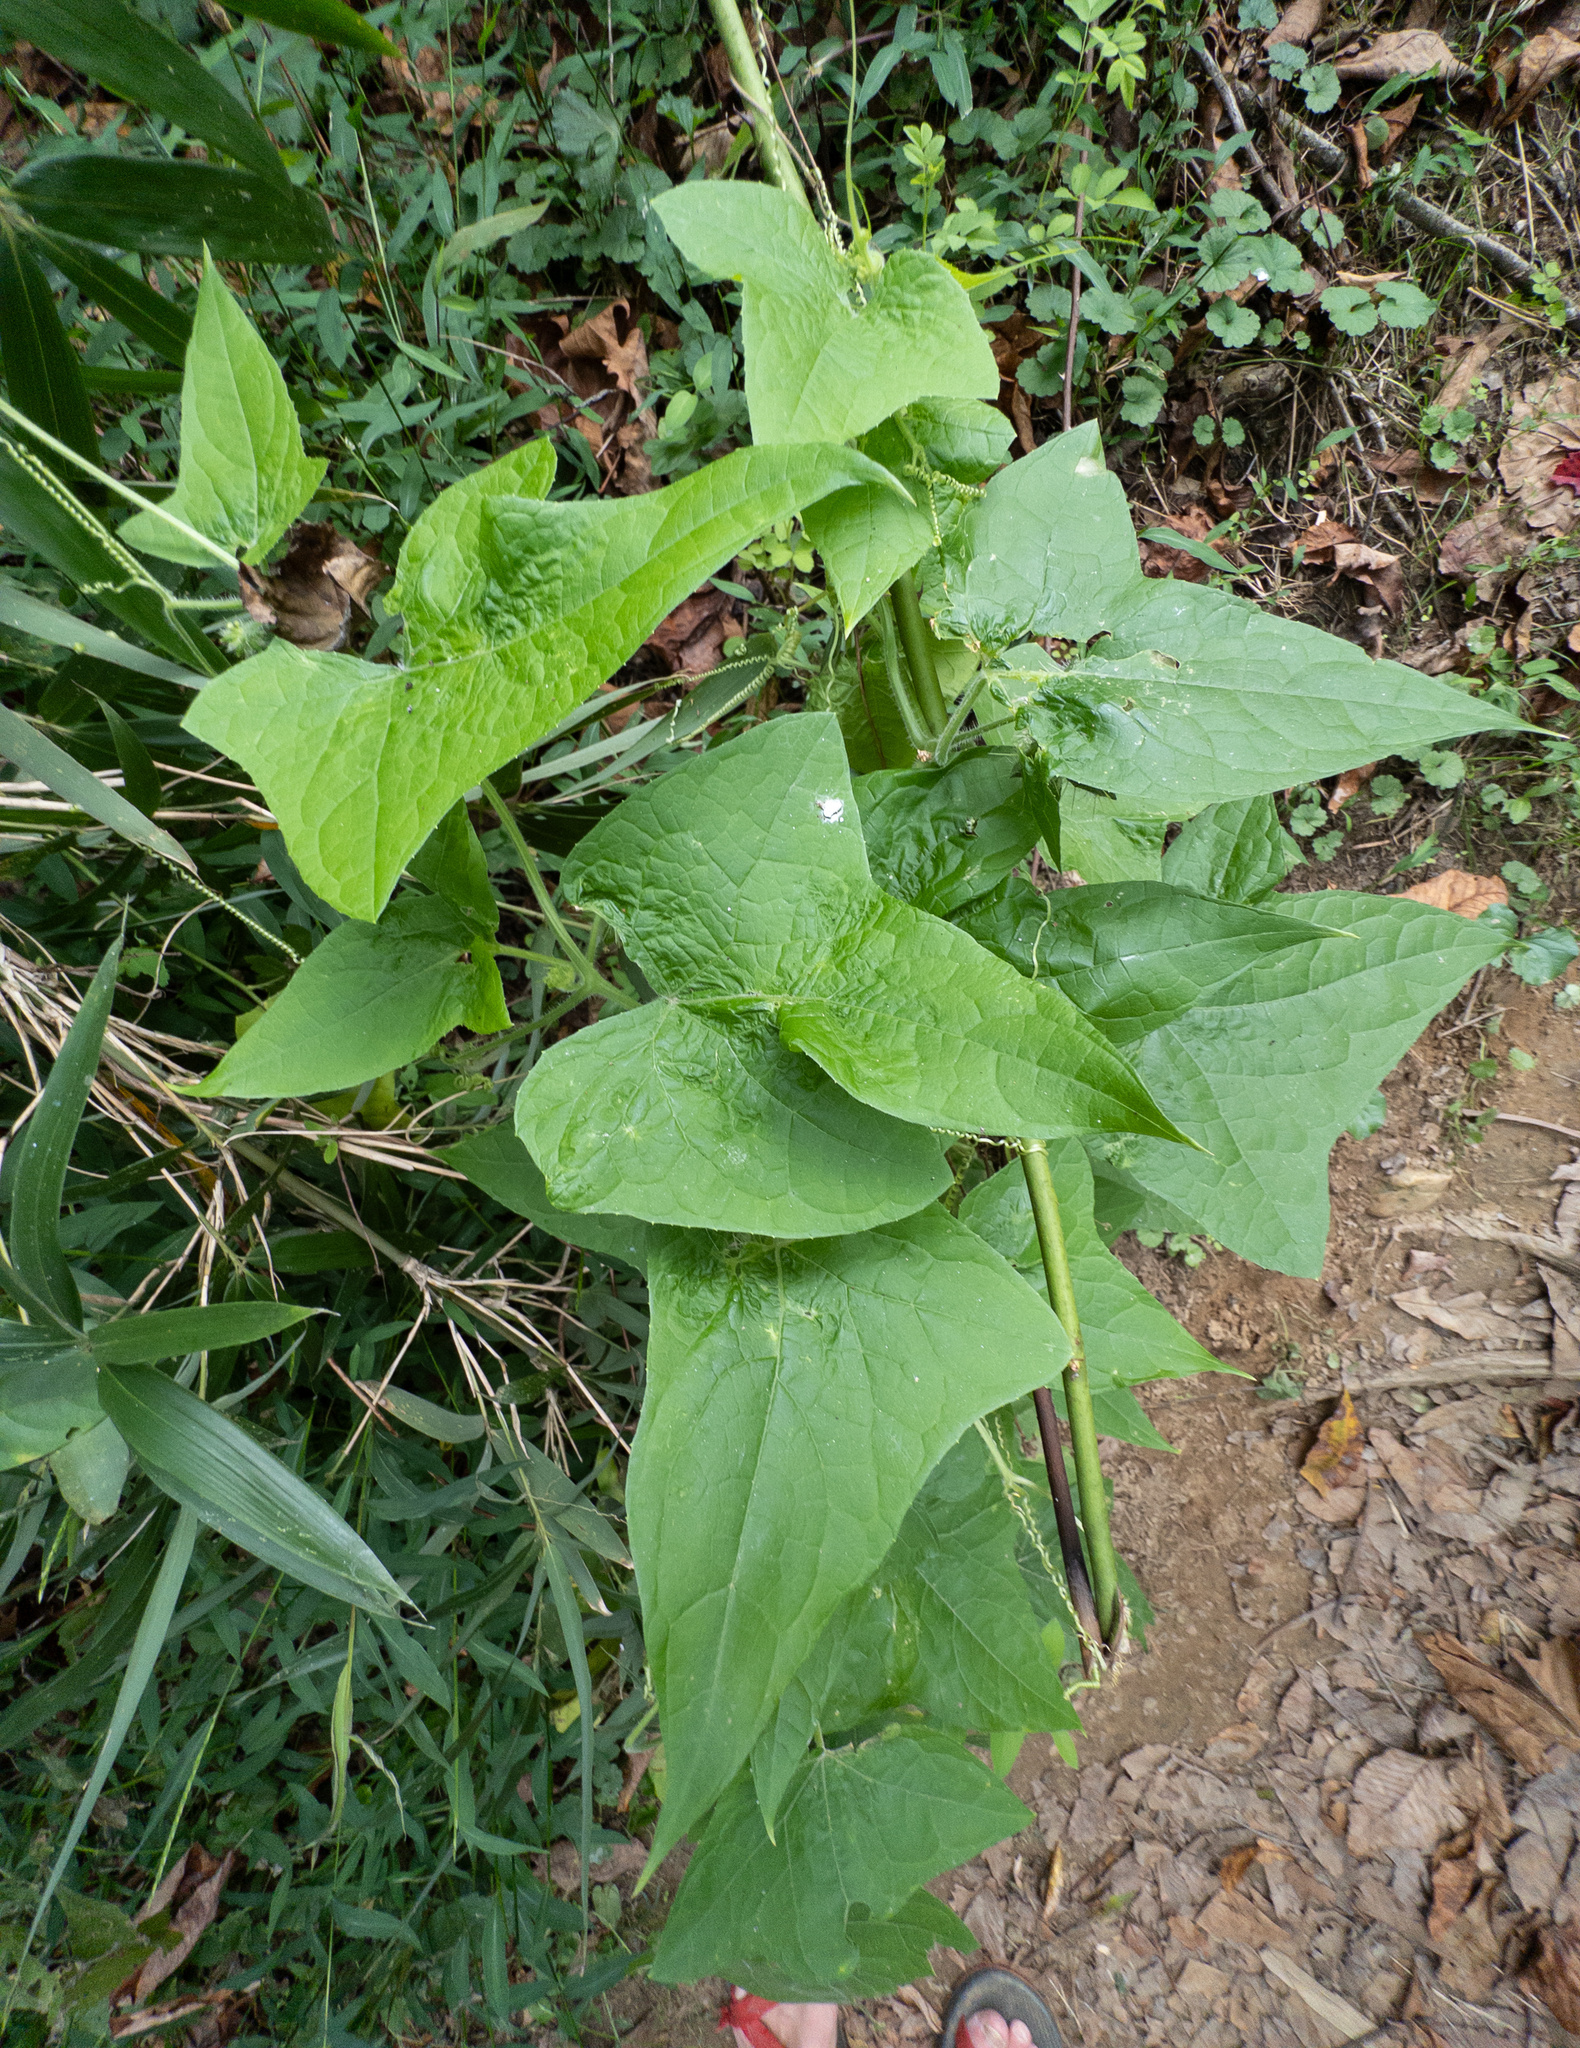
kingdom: Plantae
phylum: Tracheophyta
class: Magnoliopsida
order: Cucurbitales
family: Cucurbitaceae
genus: Sicyos
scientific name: Sicyos angulatus
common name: Angled burr cucumber
